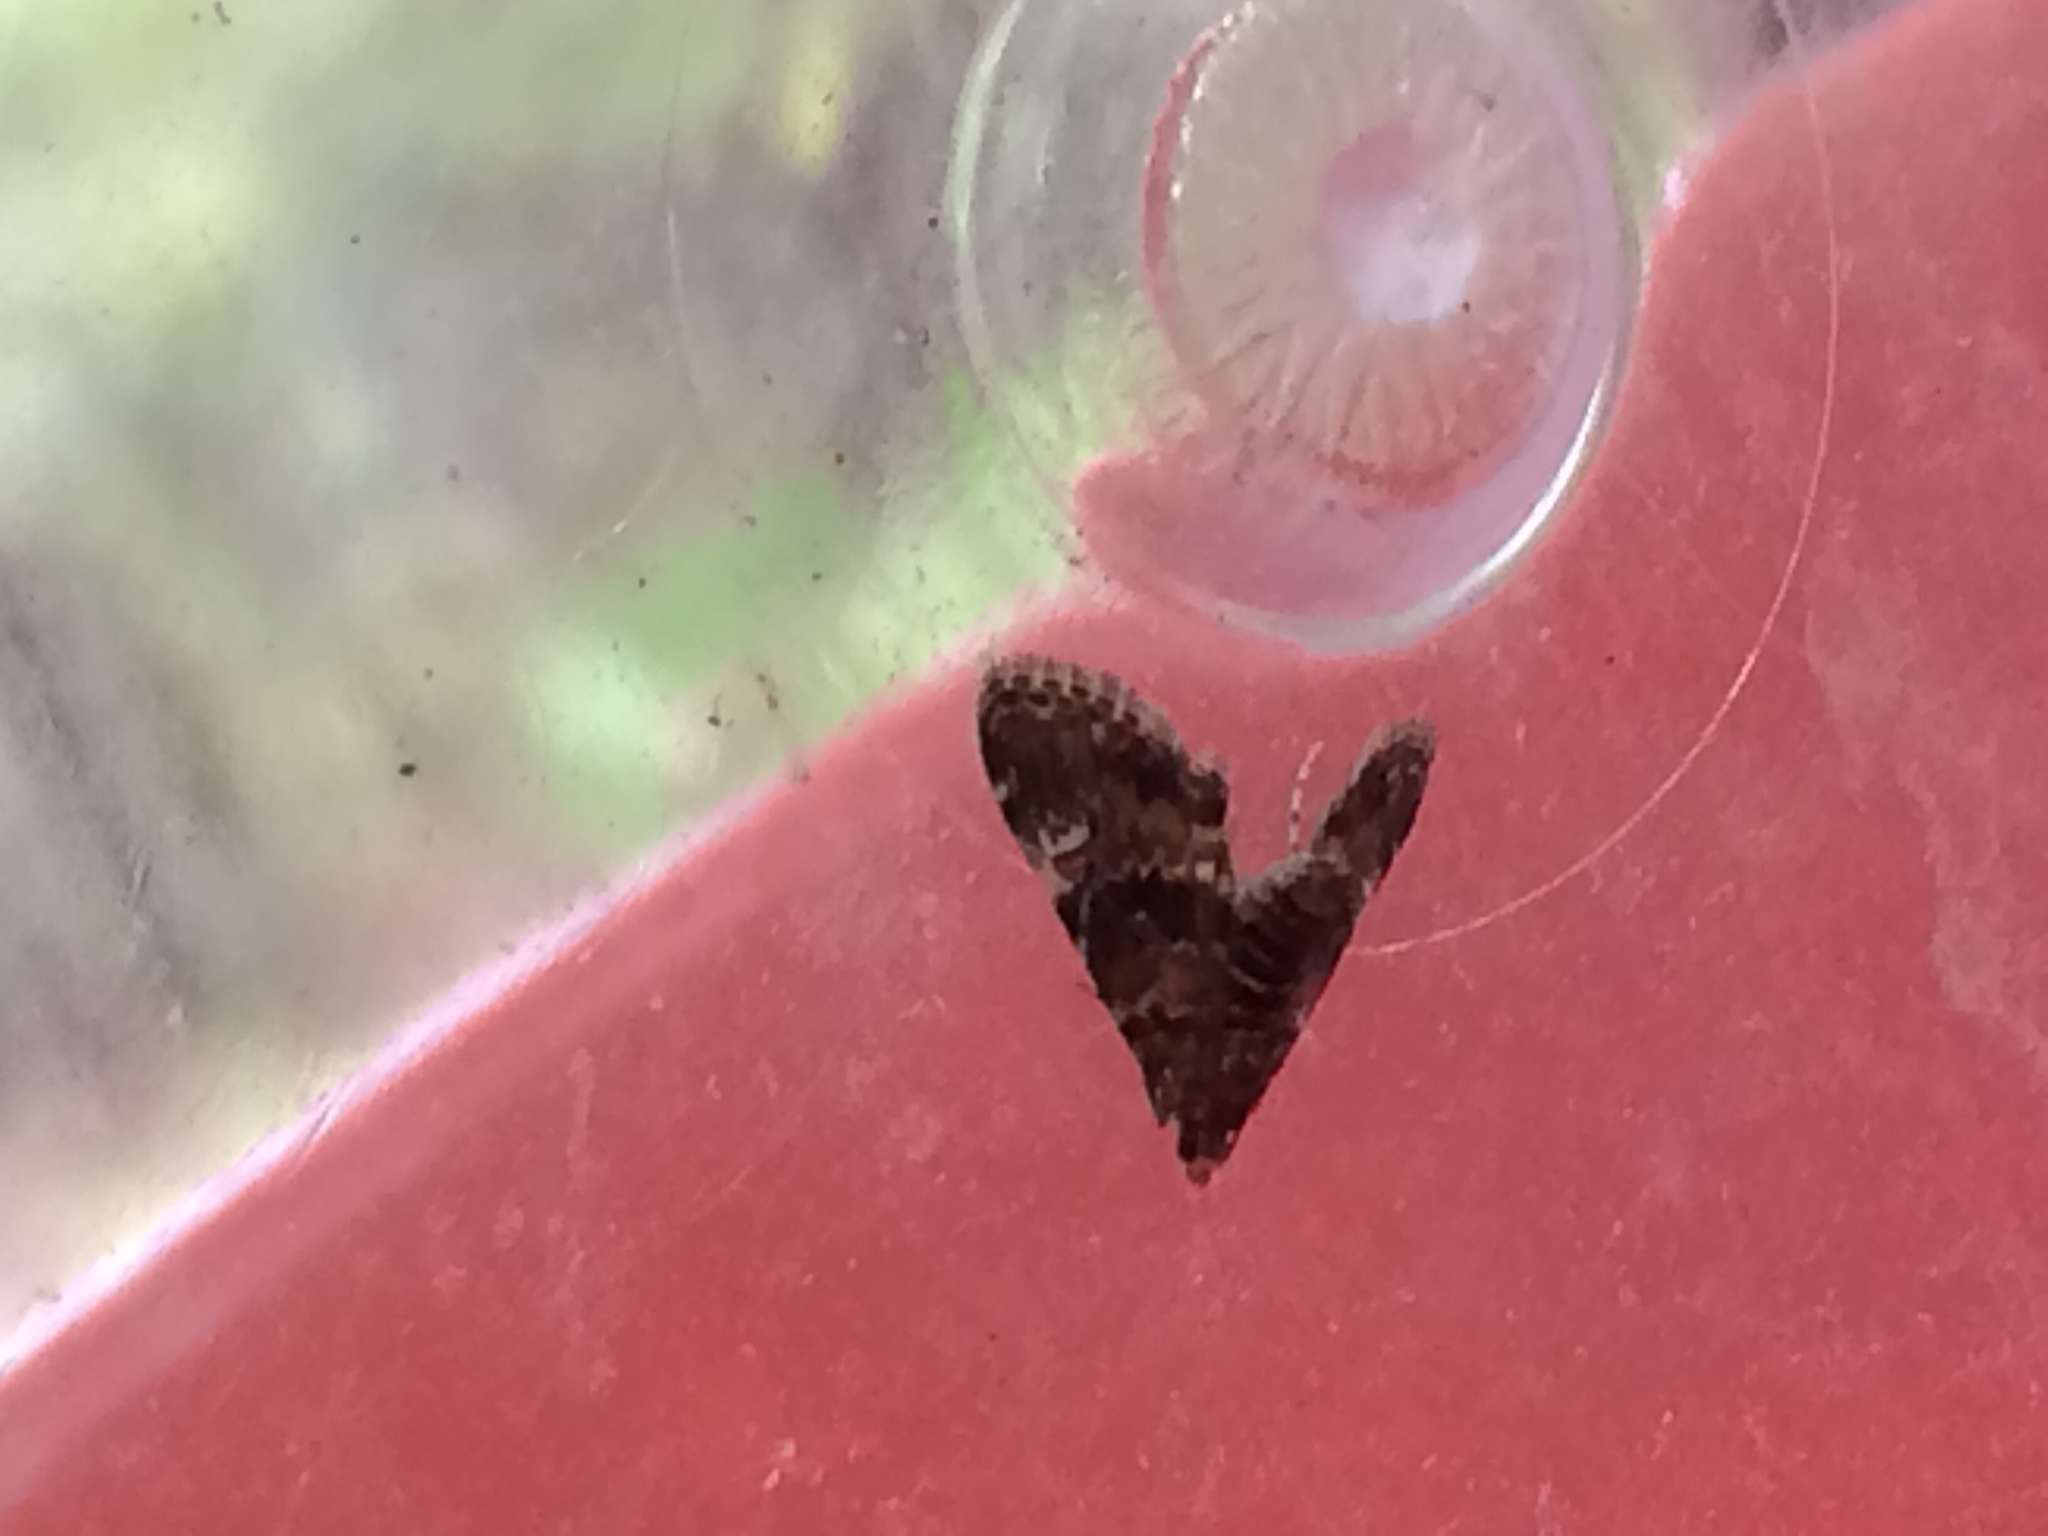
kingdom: Animalia
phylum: Arthropoda
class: Insecta
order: Lepidoptera
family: Crambidae
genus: Elophila
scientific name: Elophila obliteralis
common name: Waterlily leafcutter moth
